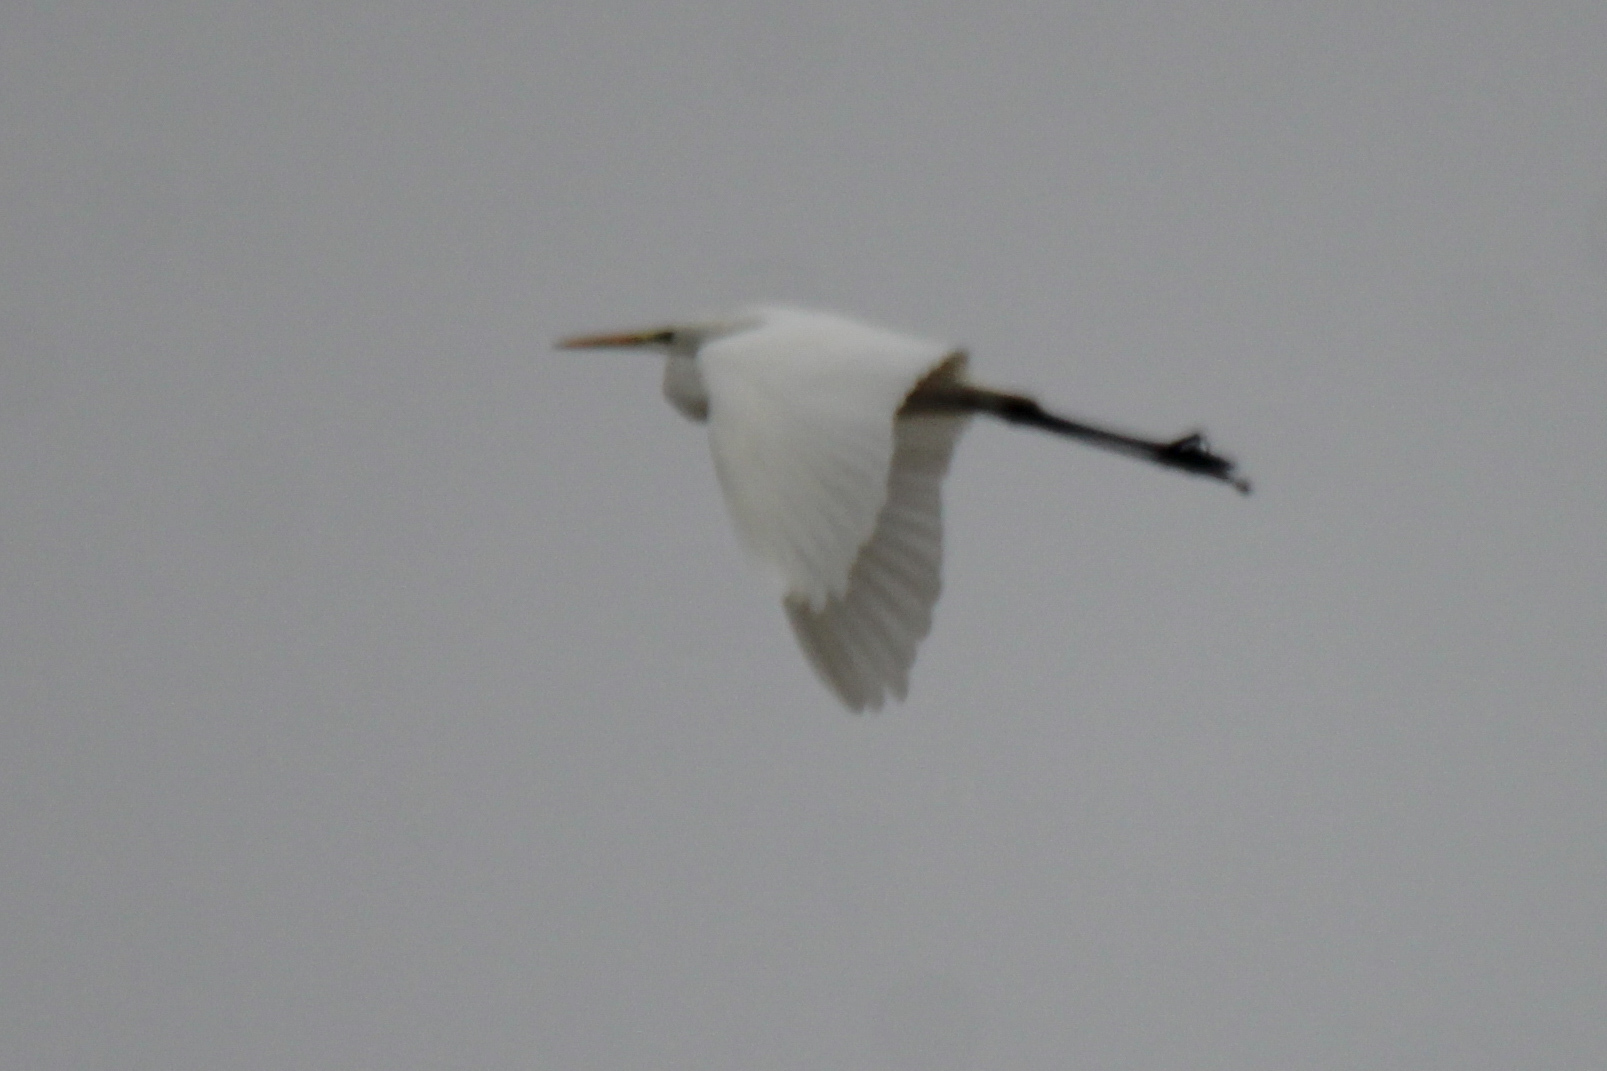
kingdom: Animalia
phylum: Chordata
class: Aves
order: Pelecaniformes
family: Ardeidae
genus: Ardea
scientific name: Ardea alba
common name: Great egret
